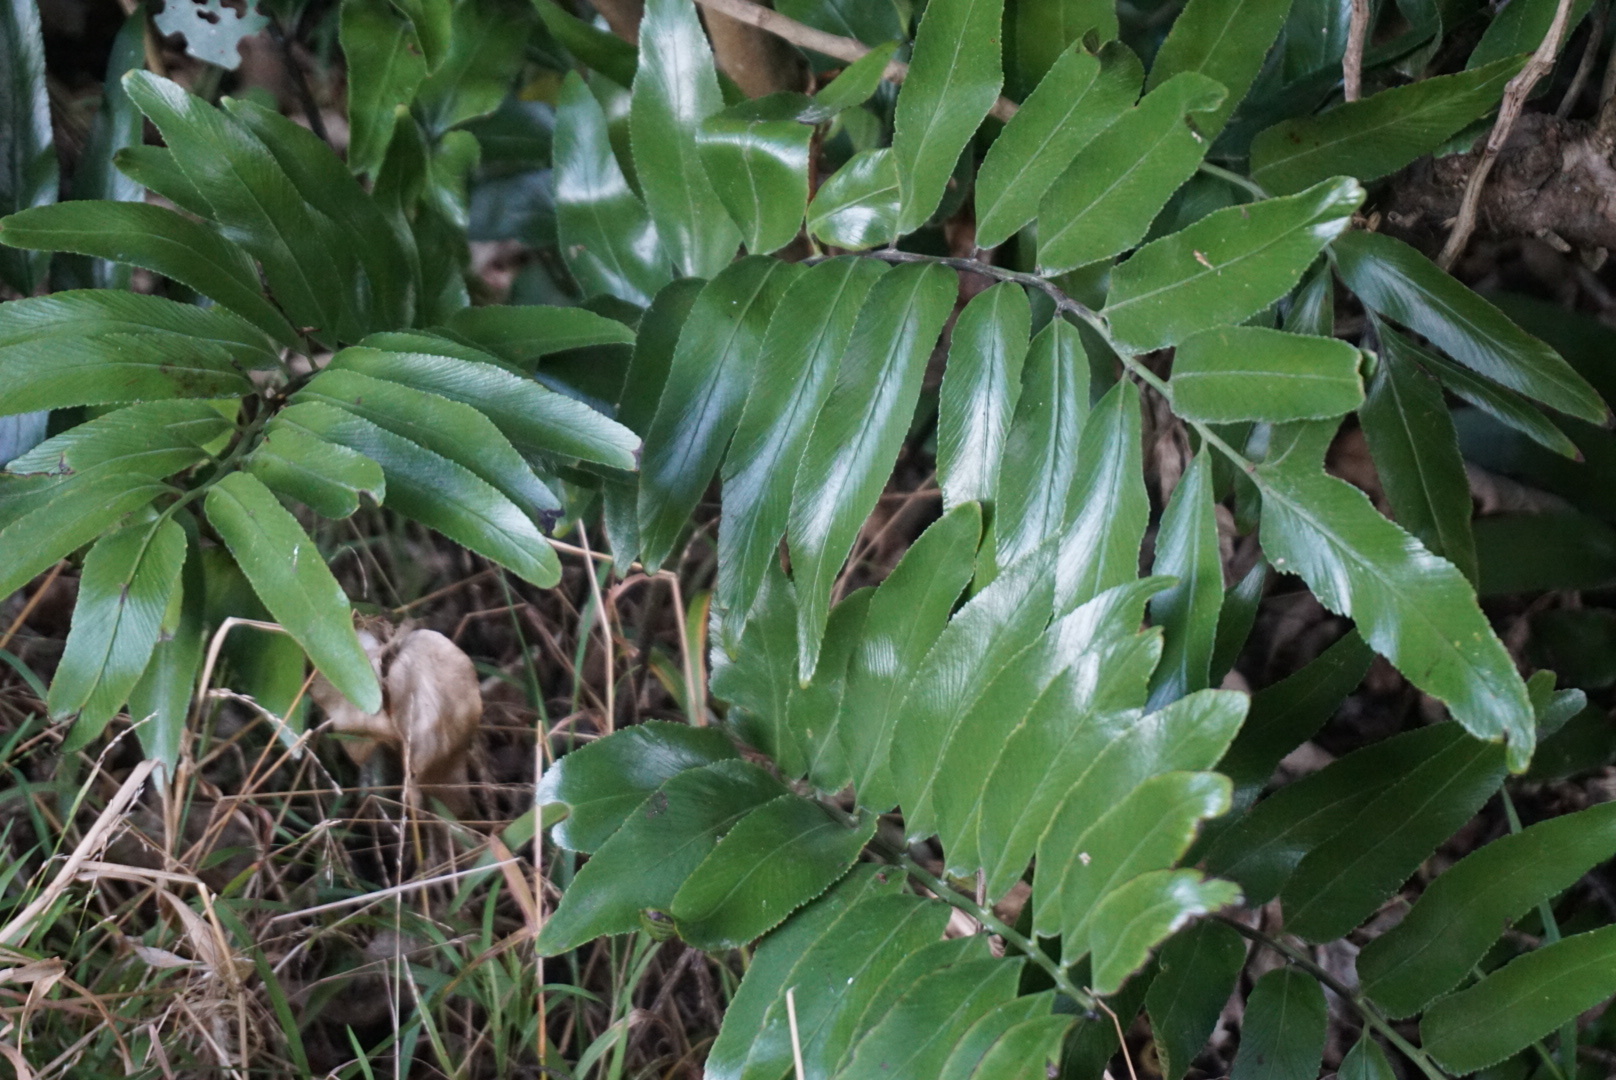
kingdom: Plantae
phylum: Tracheophyta
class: Polypodiopsida
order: Polypodiales
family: Aspleniaceae
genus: Asplenium
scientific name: Asplenium oblongifolium
